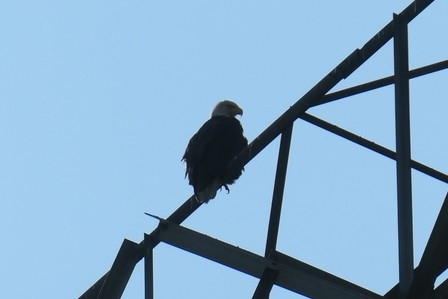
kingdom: Animalia
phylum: Chordata
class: Aves
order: Accipitriformes
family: Accipitridae
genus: Haliaeetus
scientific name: Haliaeetus leucocephalus
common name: Bald eagle
